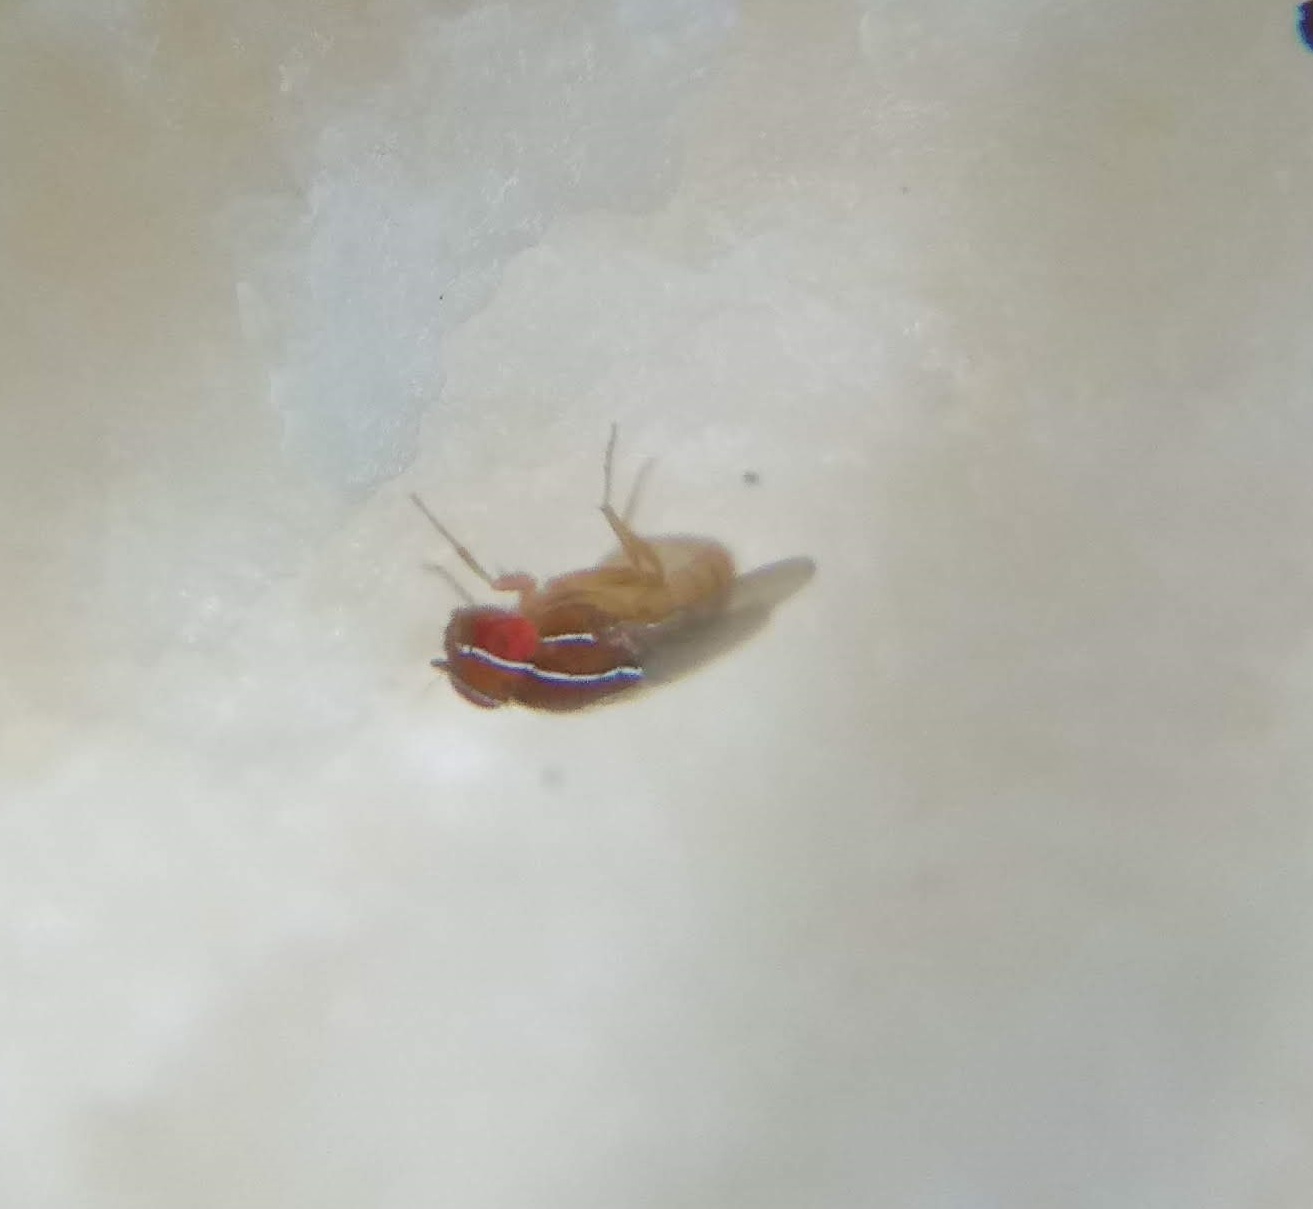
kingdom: Animalia
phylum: Arthropoda
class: Insecta
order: Diptera
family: Drosophilidae
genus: Zaprionus
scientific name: Zaprionus indianus
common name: African fig fly
